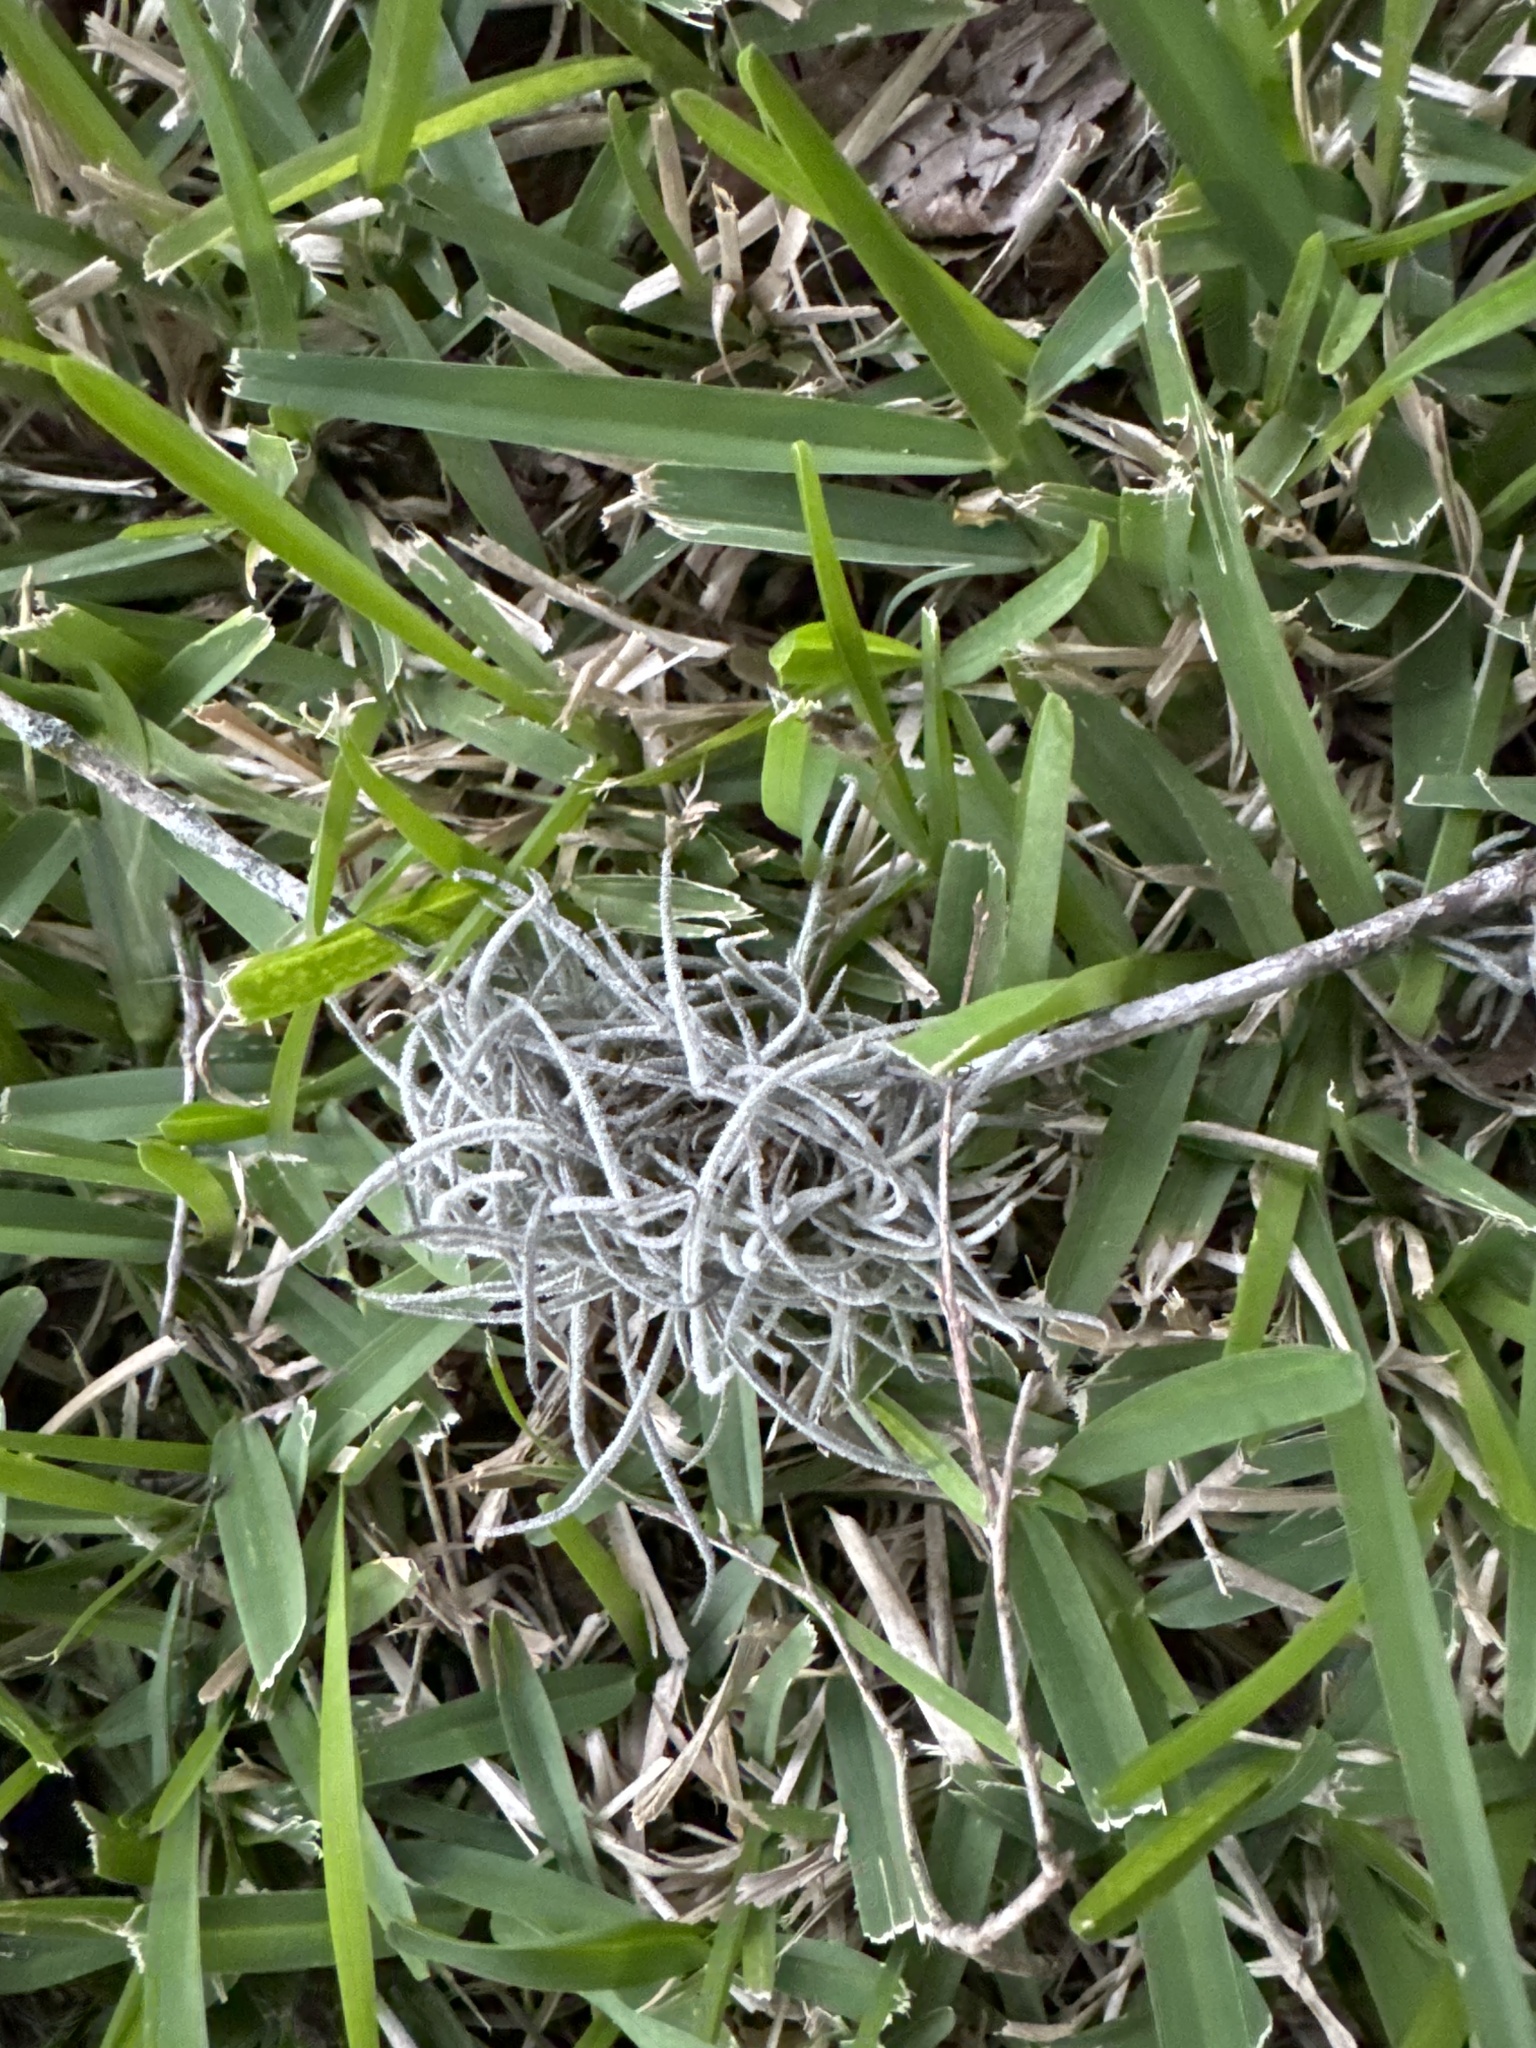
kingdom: Plantae
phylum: Tracheophyta
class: Liliopsida
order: Poales
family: Bromeliaceae
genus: Tillandsia
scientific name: Tillandsia recurvata
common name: Small ballmoss
